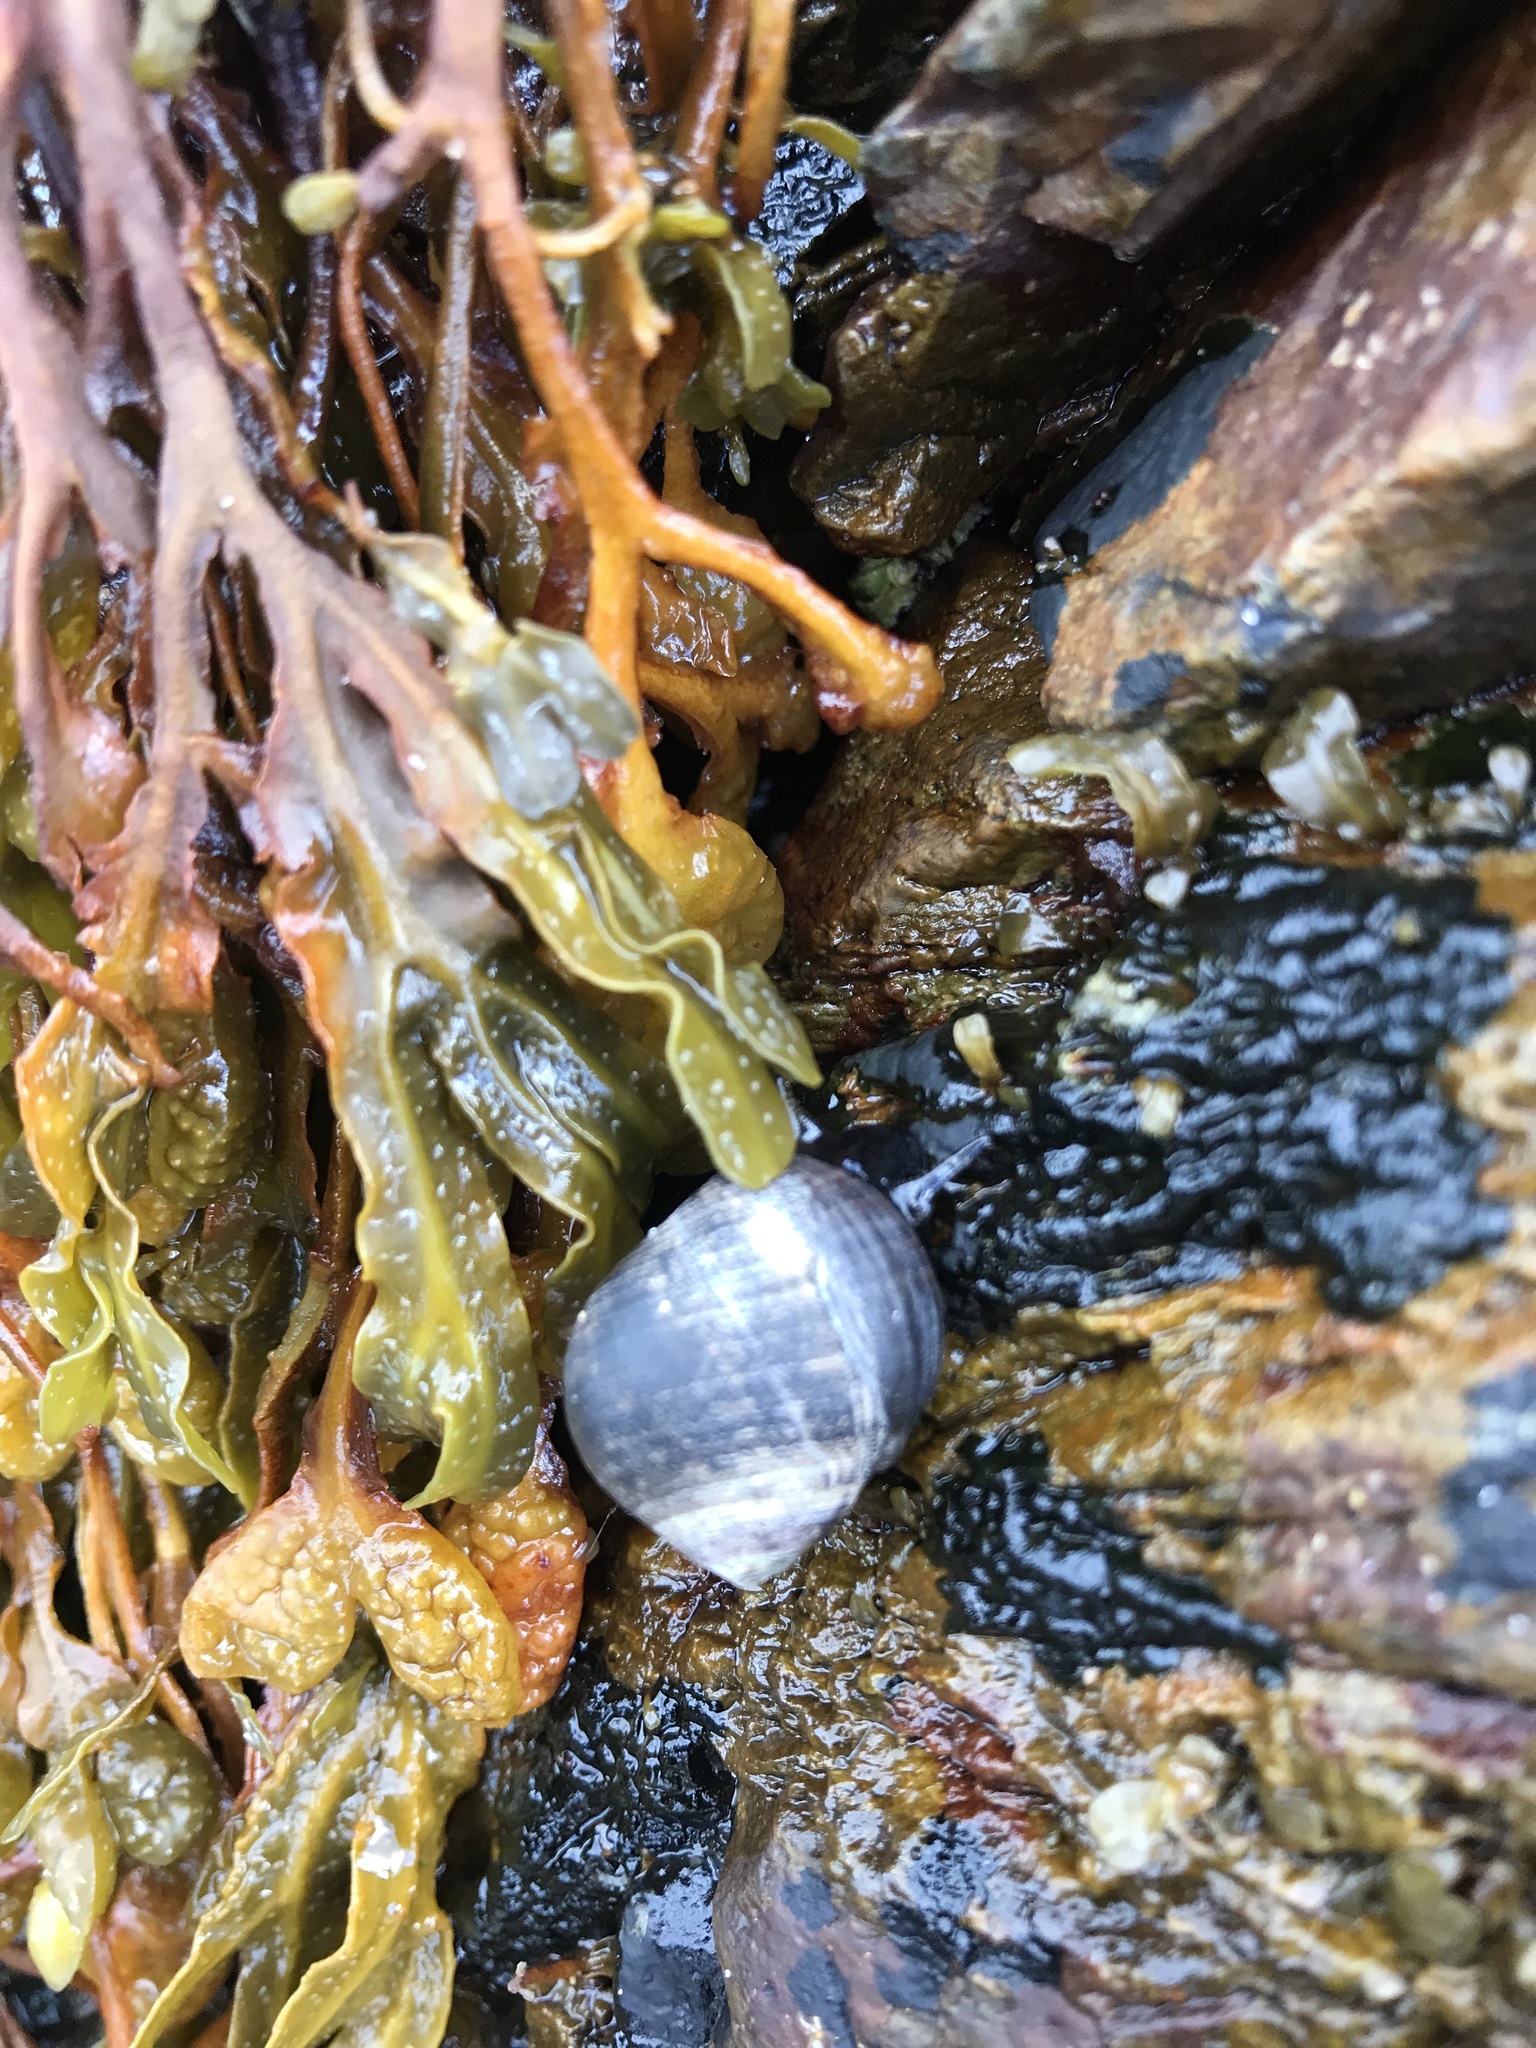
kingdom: Animalia
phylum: Mollusca
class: Gastropoda
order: Littorinimorpha
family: Littorinidae
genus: Littorina
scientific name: Littorina littorea
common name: Common periwinkle
